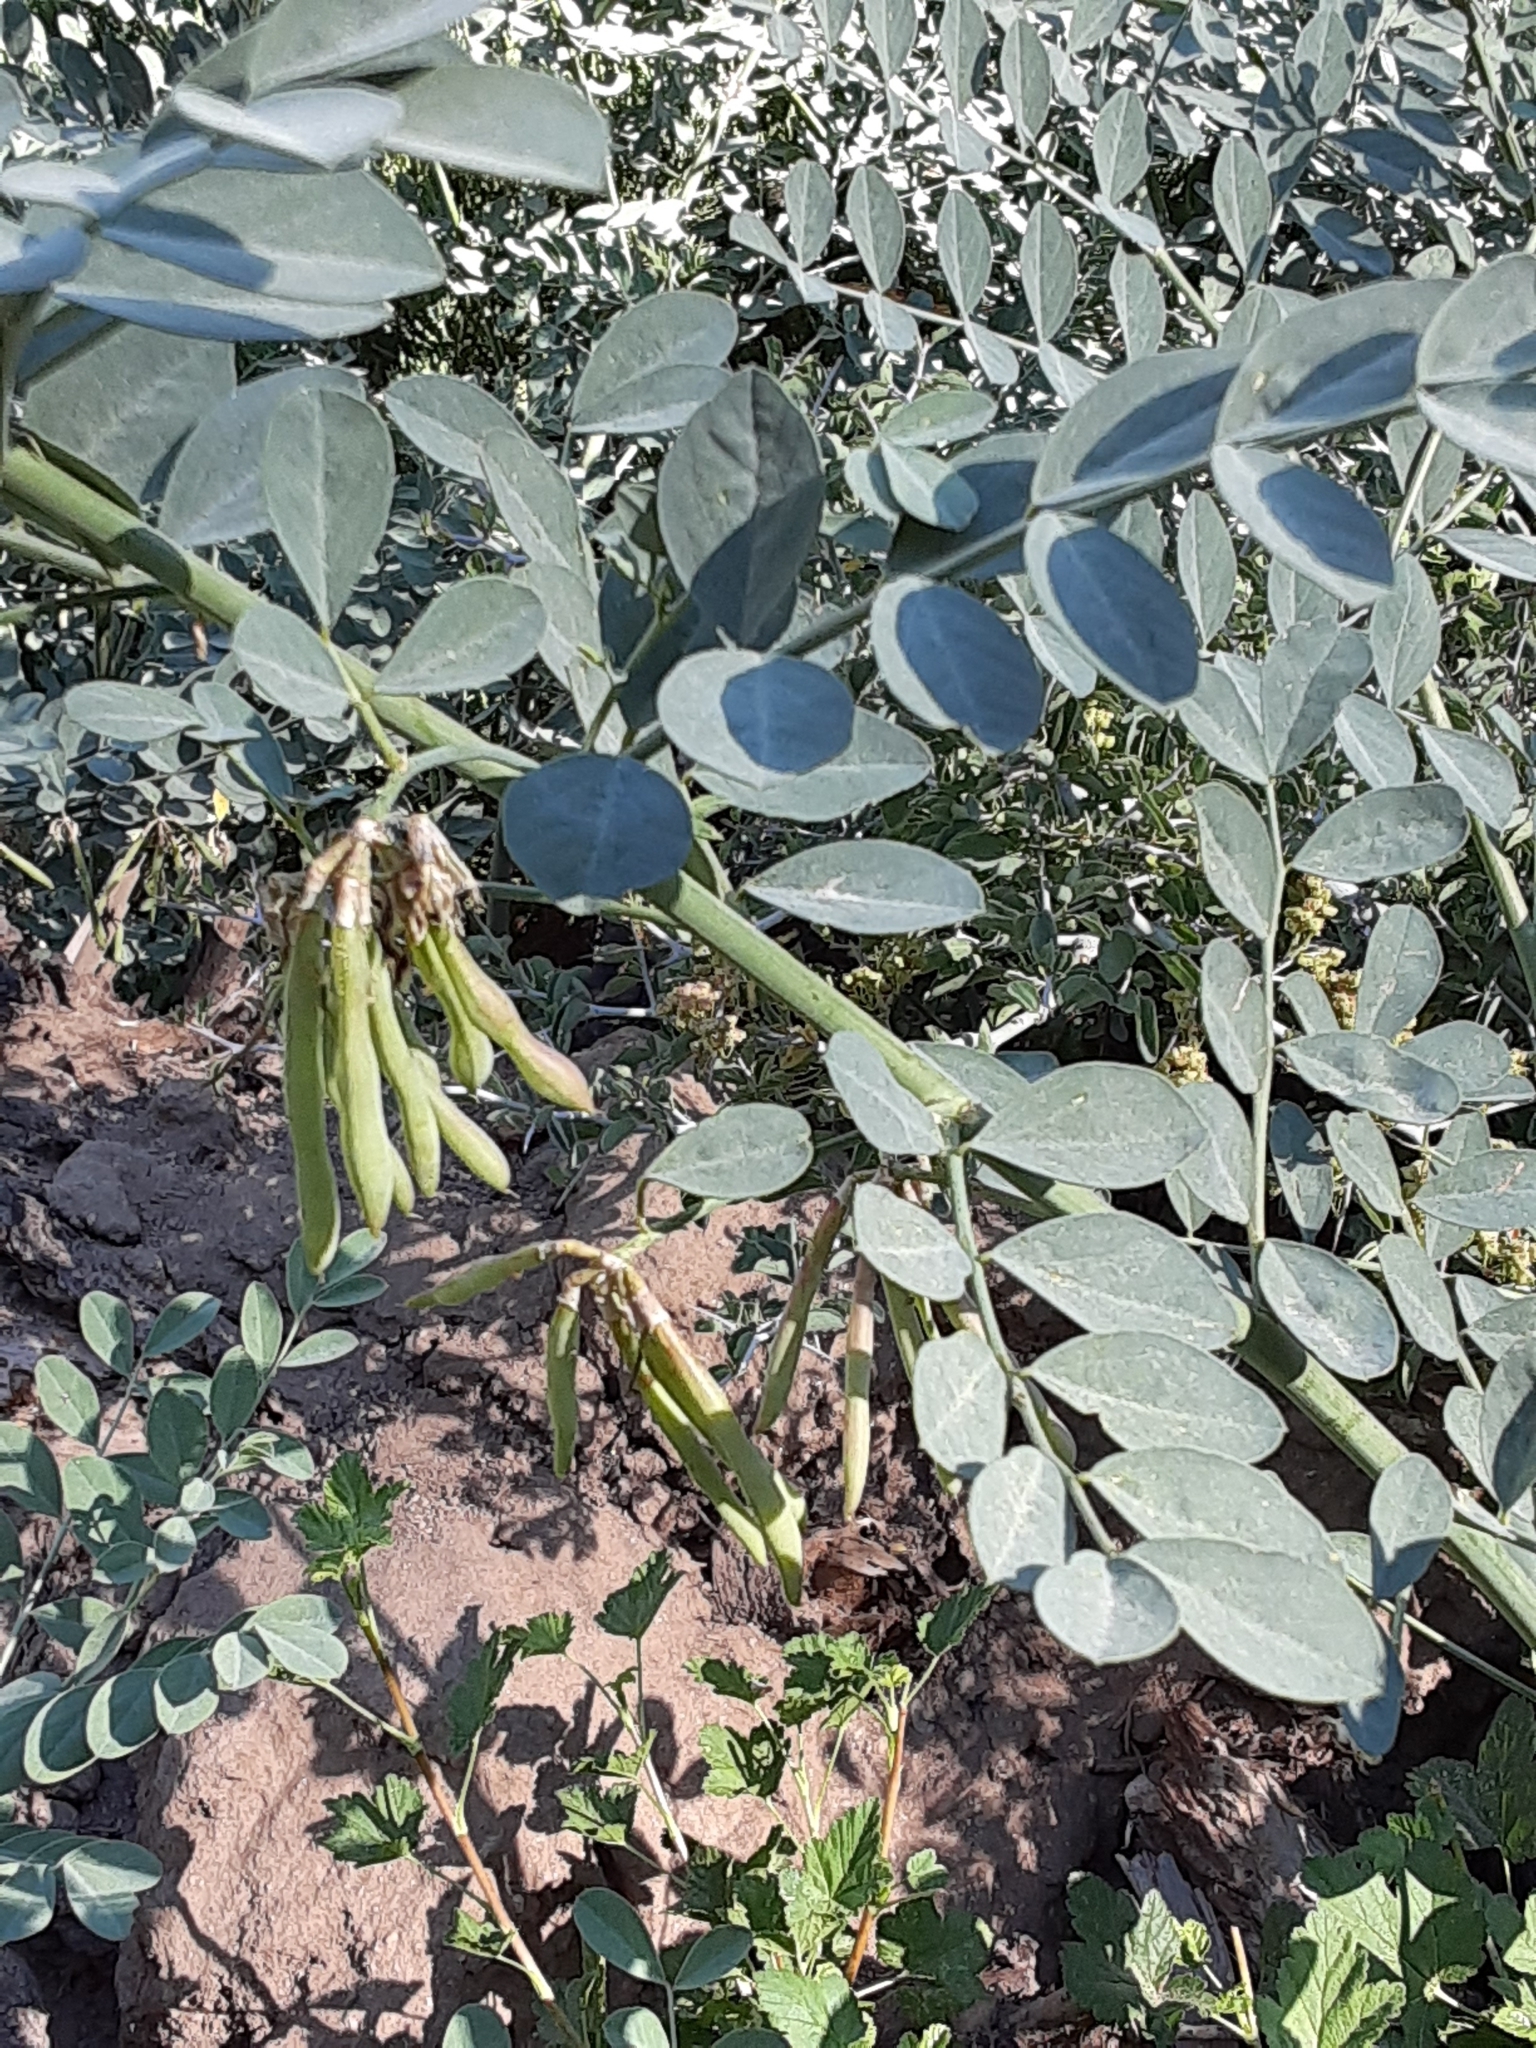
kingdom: Plantae
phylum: Tracheophyta
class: Magnoliopsida
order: Fabales
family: Fabaceae
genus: Hosackia
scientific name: Hosackia crassifolia
